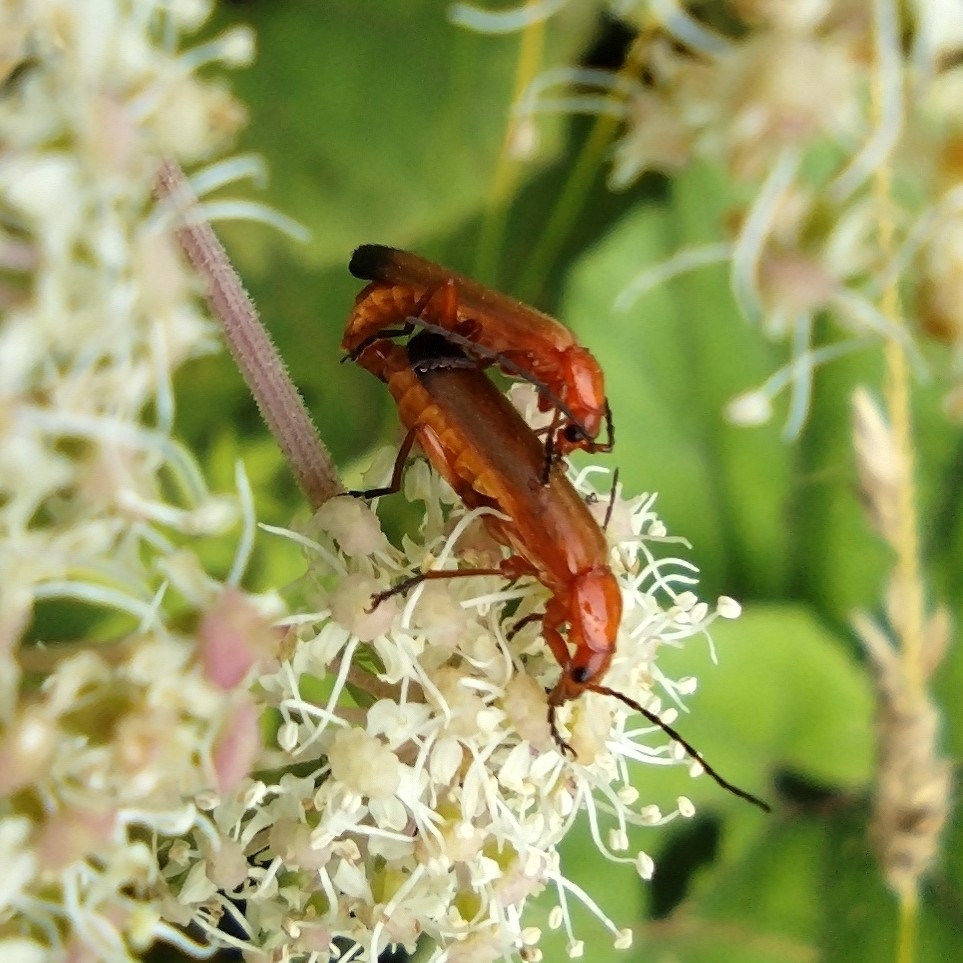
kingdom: Animalia
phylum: Arthropoda
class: Insecta
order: Coleoptera
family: Cantharidae
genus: Rhagonycha
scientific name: Rhagonycha fulva
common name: Common red soldier beetle
